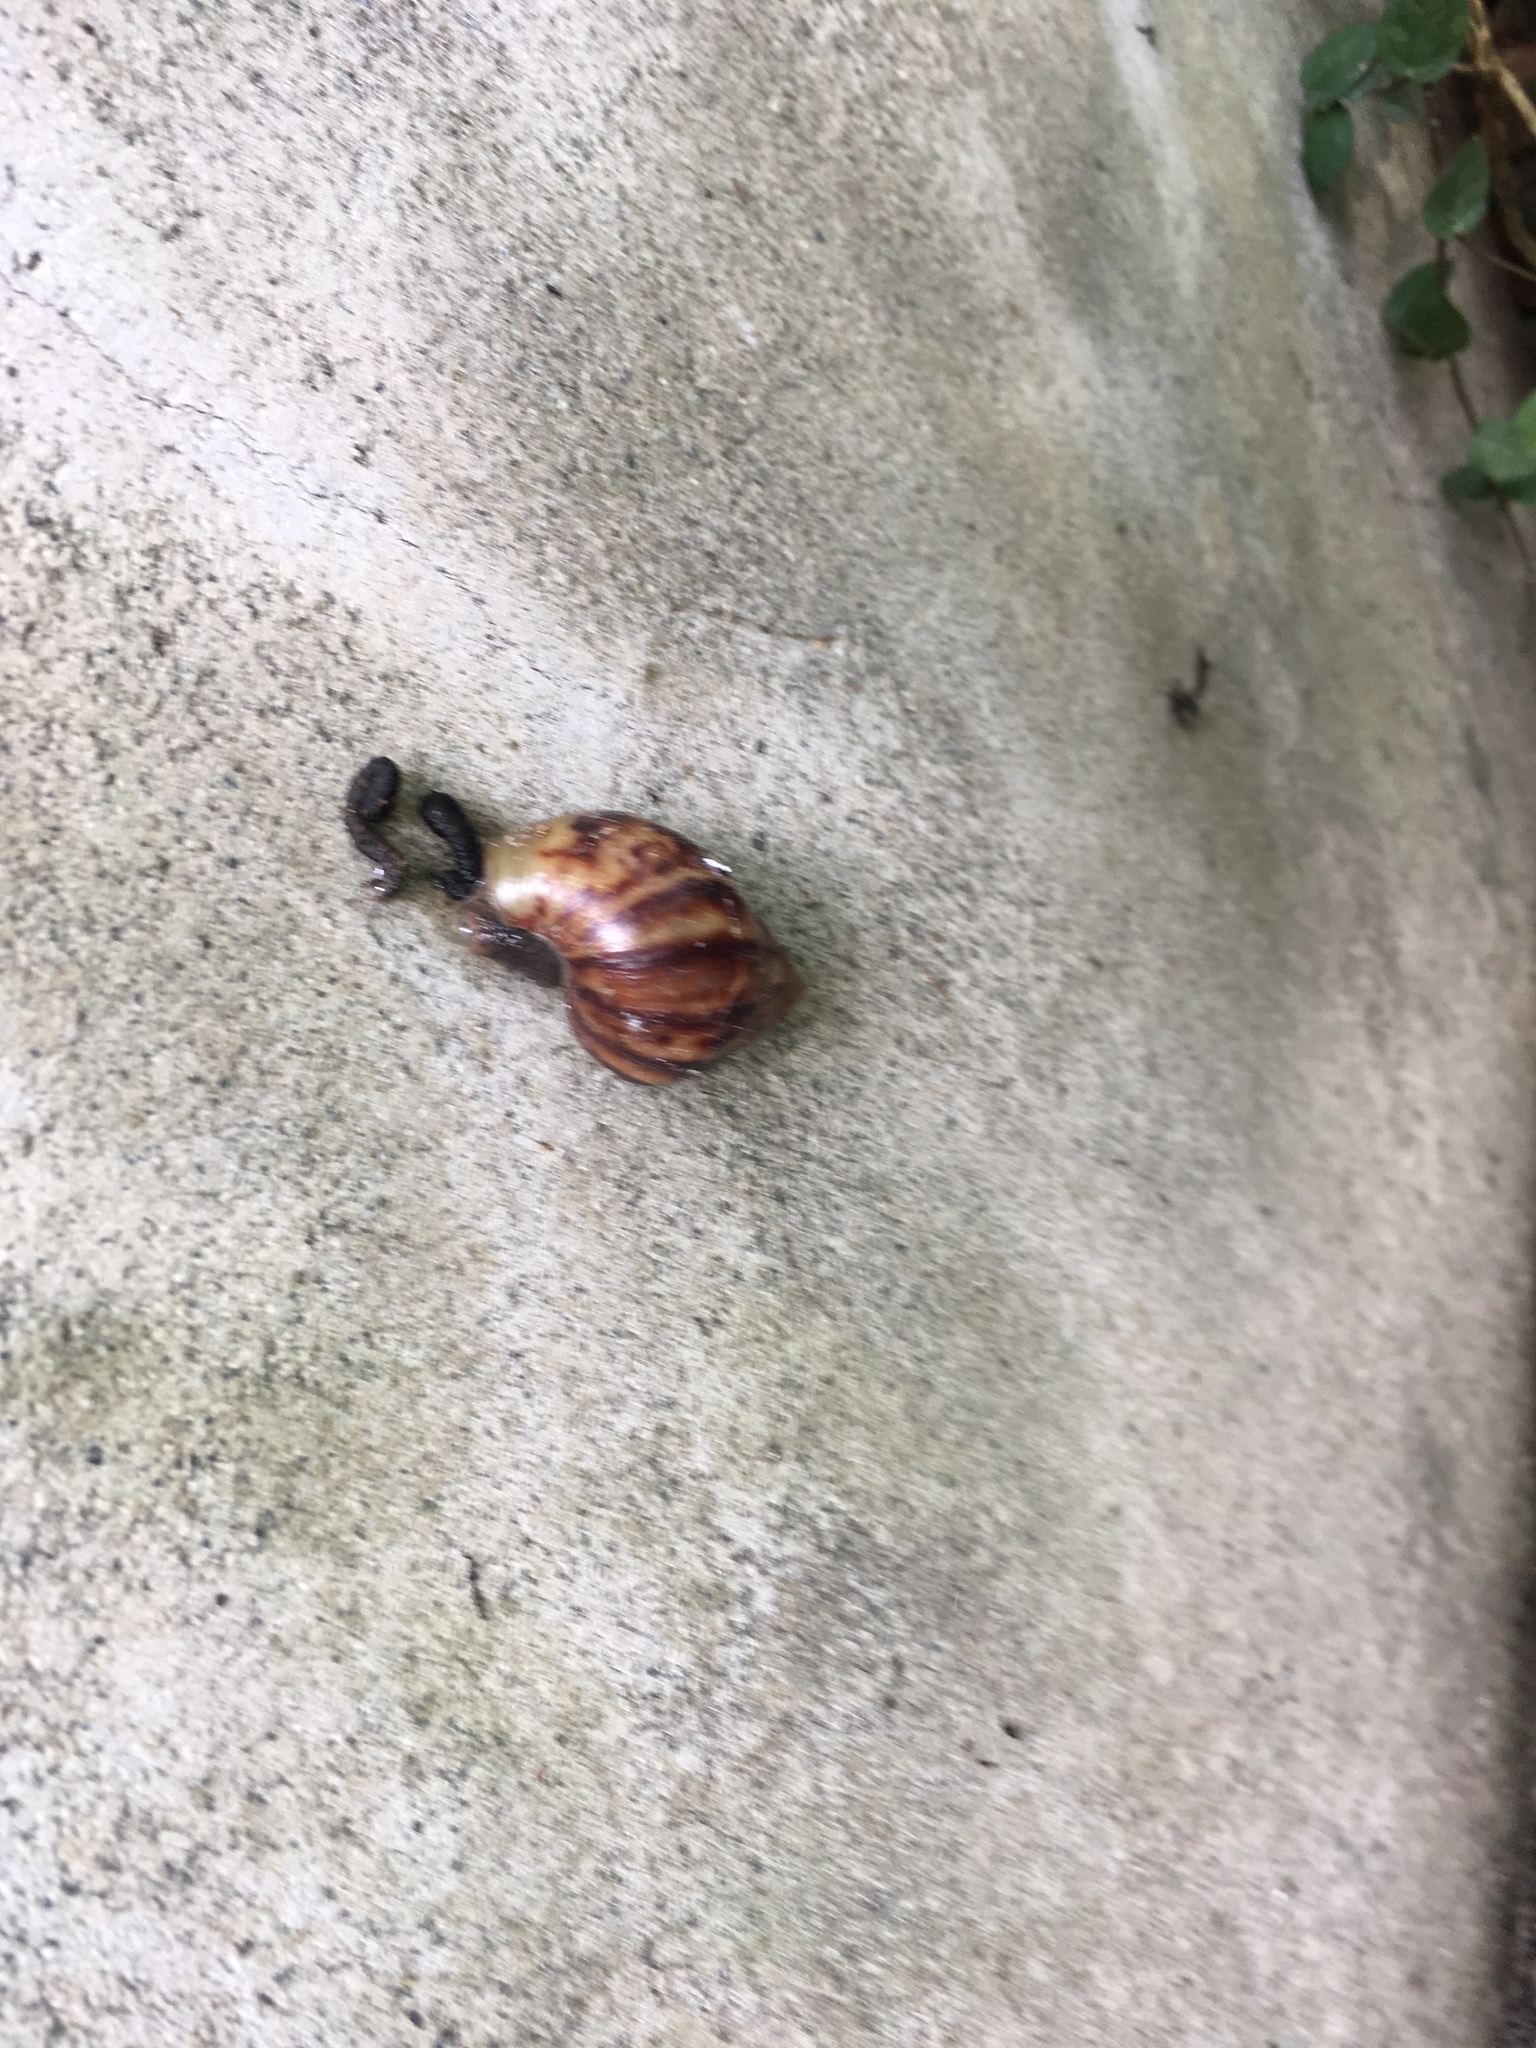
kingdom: Animalia
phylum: Mollusca
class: Gastropoda
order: Stylommatophora
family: Achatinidae
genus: Lissachatina
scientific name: Lissachatina fulica
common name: Giant african snail
